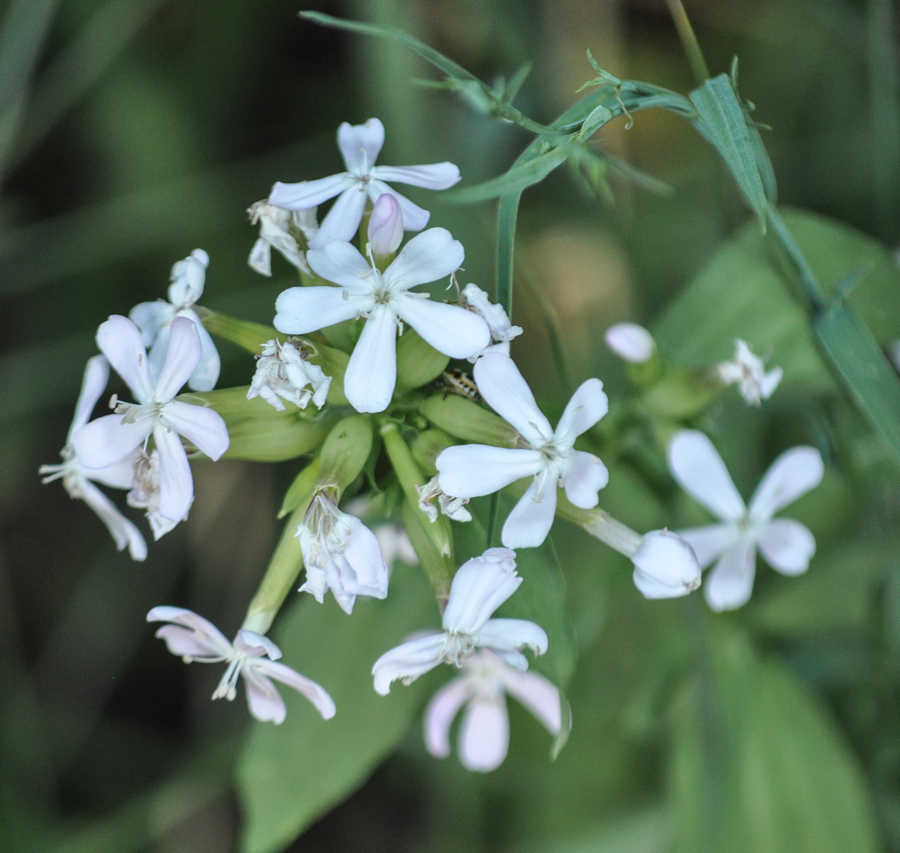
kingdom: Plantae
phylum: Tracheophyta
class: Magnoliopsida
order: Caryophyllales
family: Caryophyllaceae
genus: Saponaria
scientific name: Saponaria officinalis
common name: Soapwort
